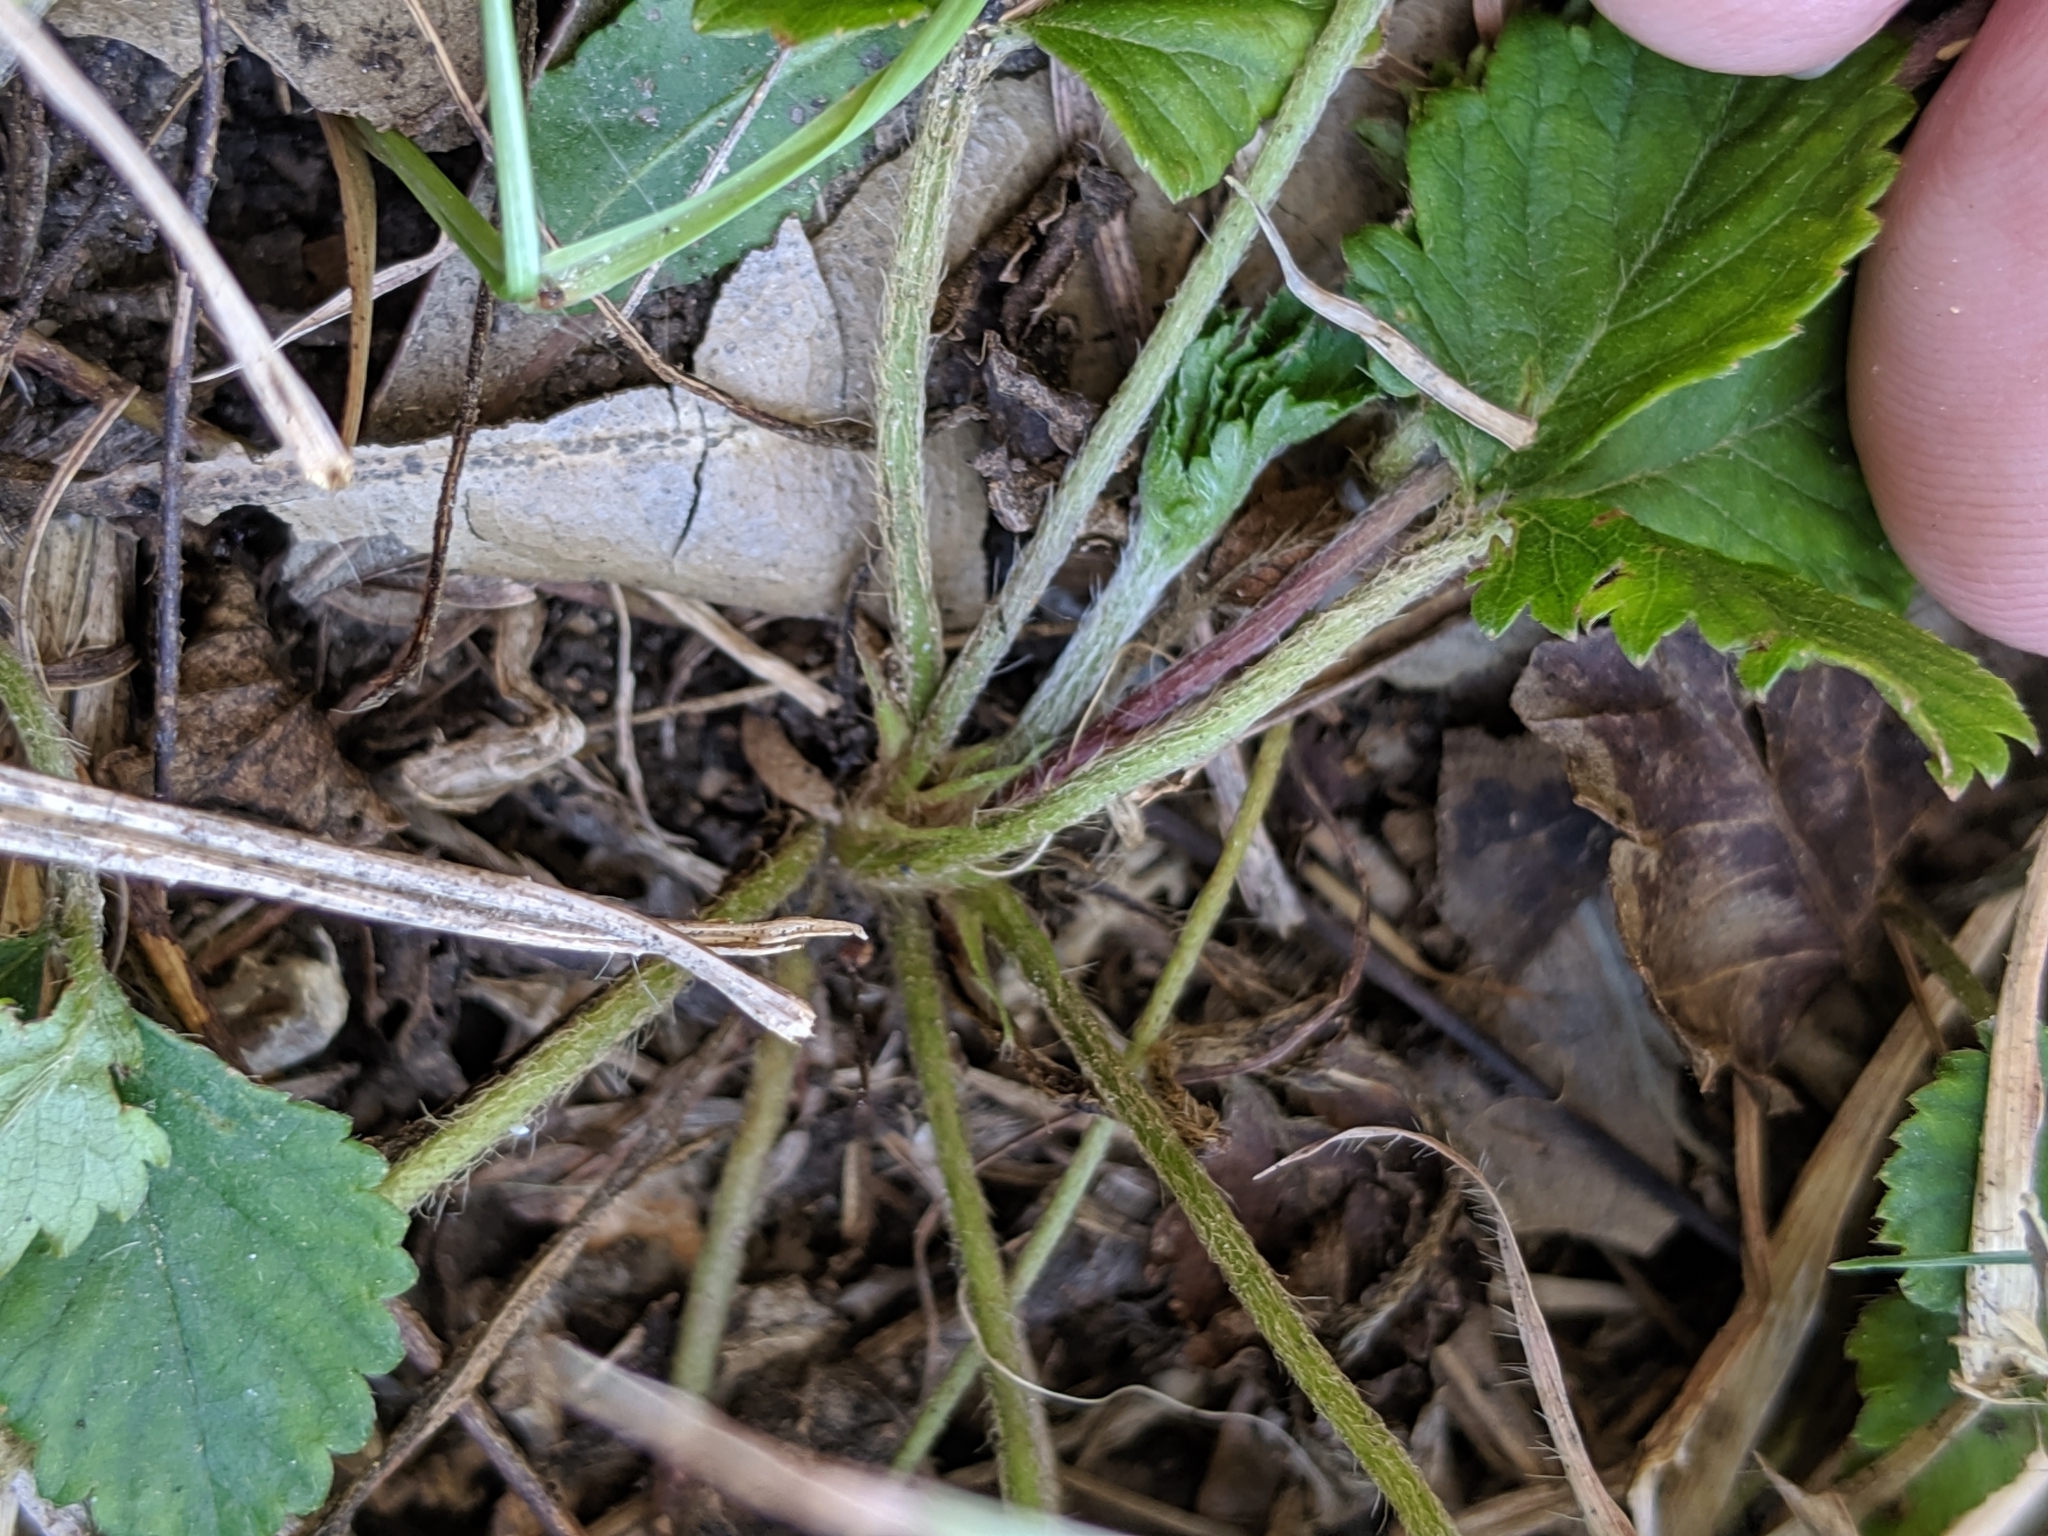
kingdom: Plantae
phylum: Tracheophyta
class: Magnoliopsida
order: Rosales
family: Rosaceae
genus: Potentilla
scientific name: Potentilla indica
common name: Yellow-flowered strawberry
